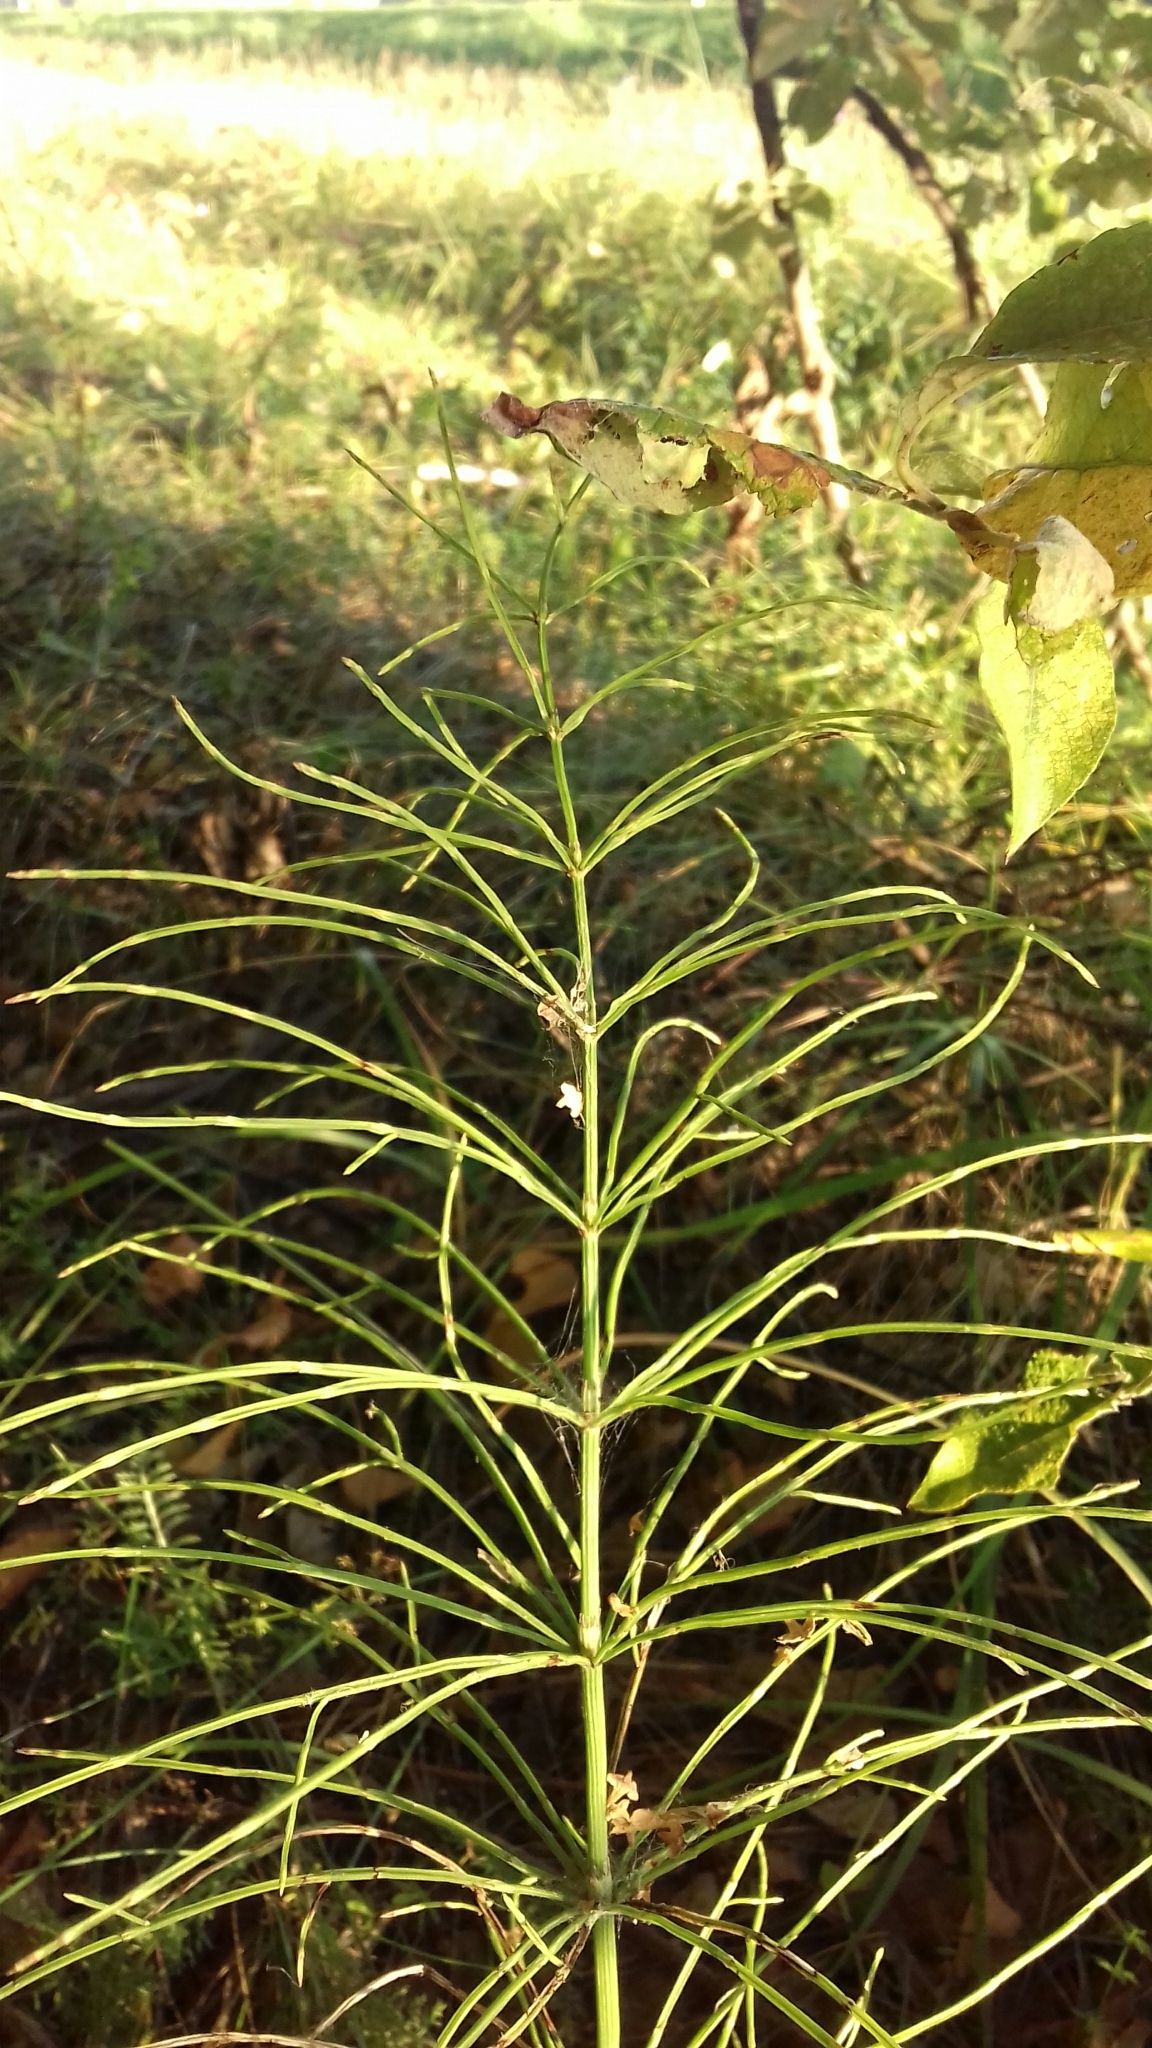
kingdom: Plantae
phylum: Tracheophyta
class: Polypodiopsida
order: Equisetales
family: Equisetaceae
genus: Equisetum
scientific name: Equisetum arvense
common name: Field horsetail
